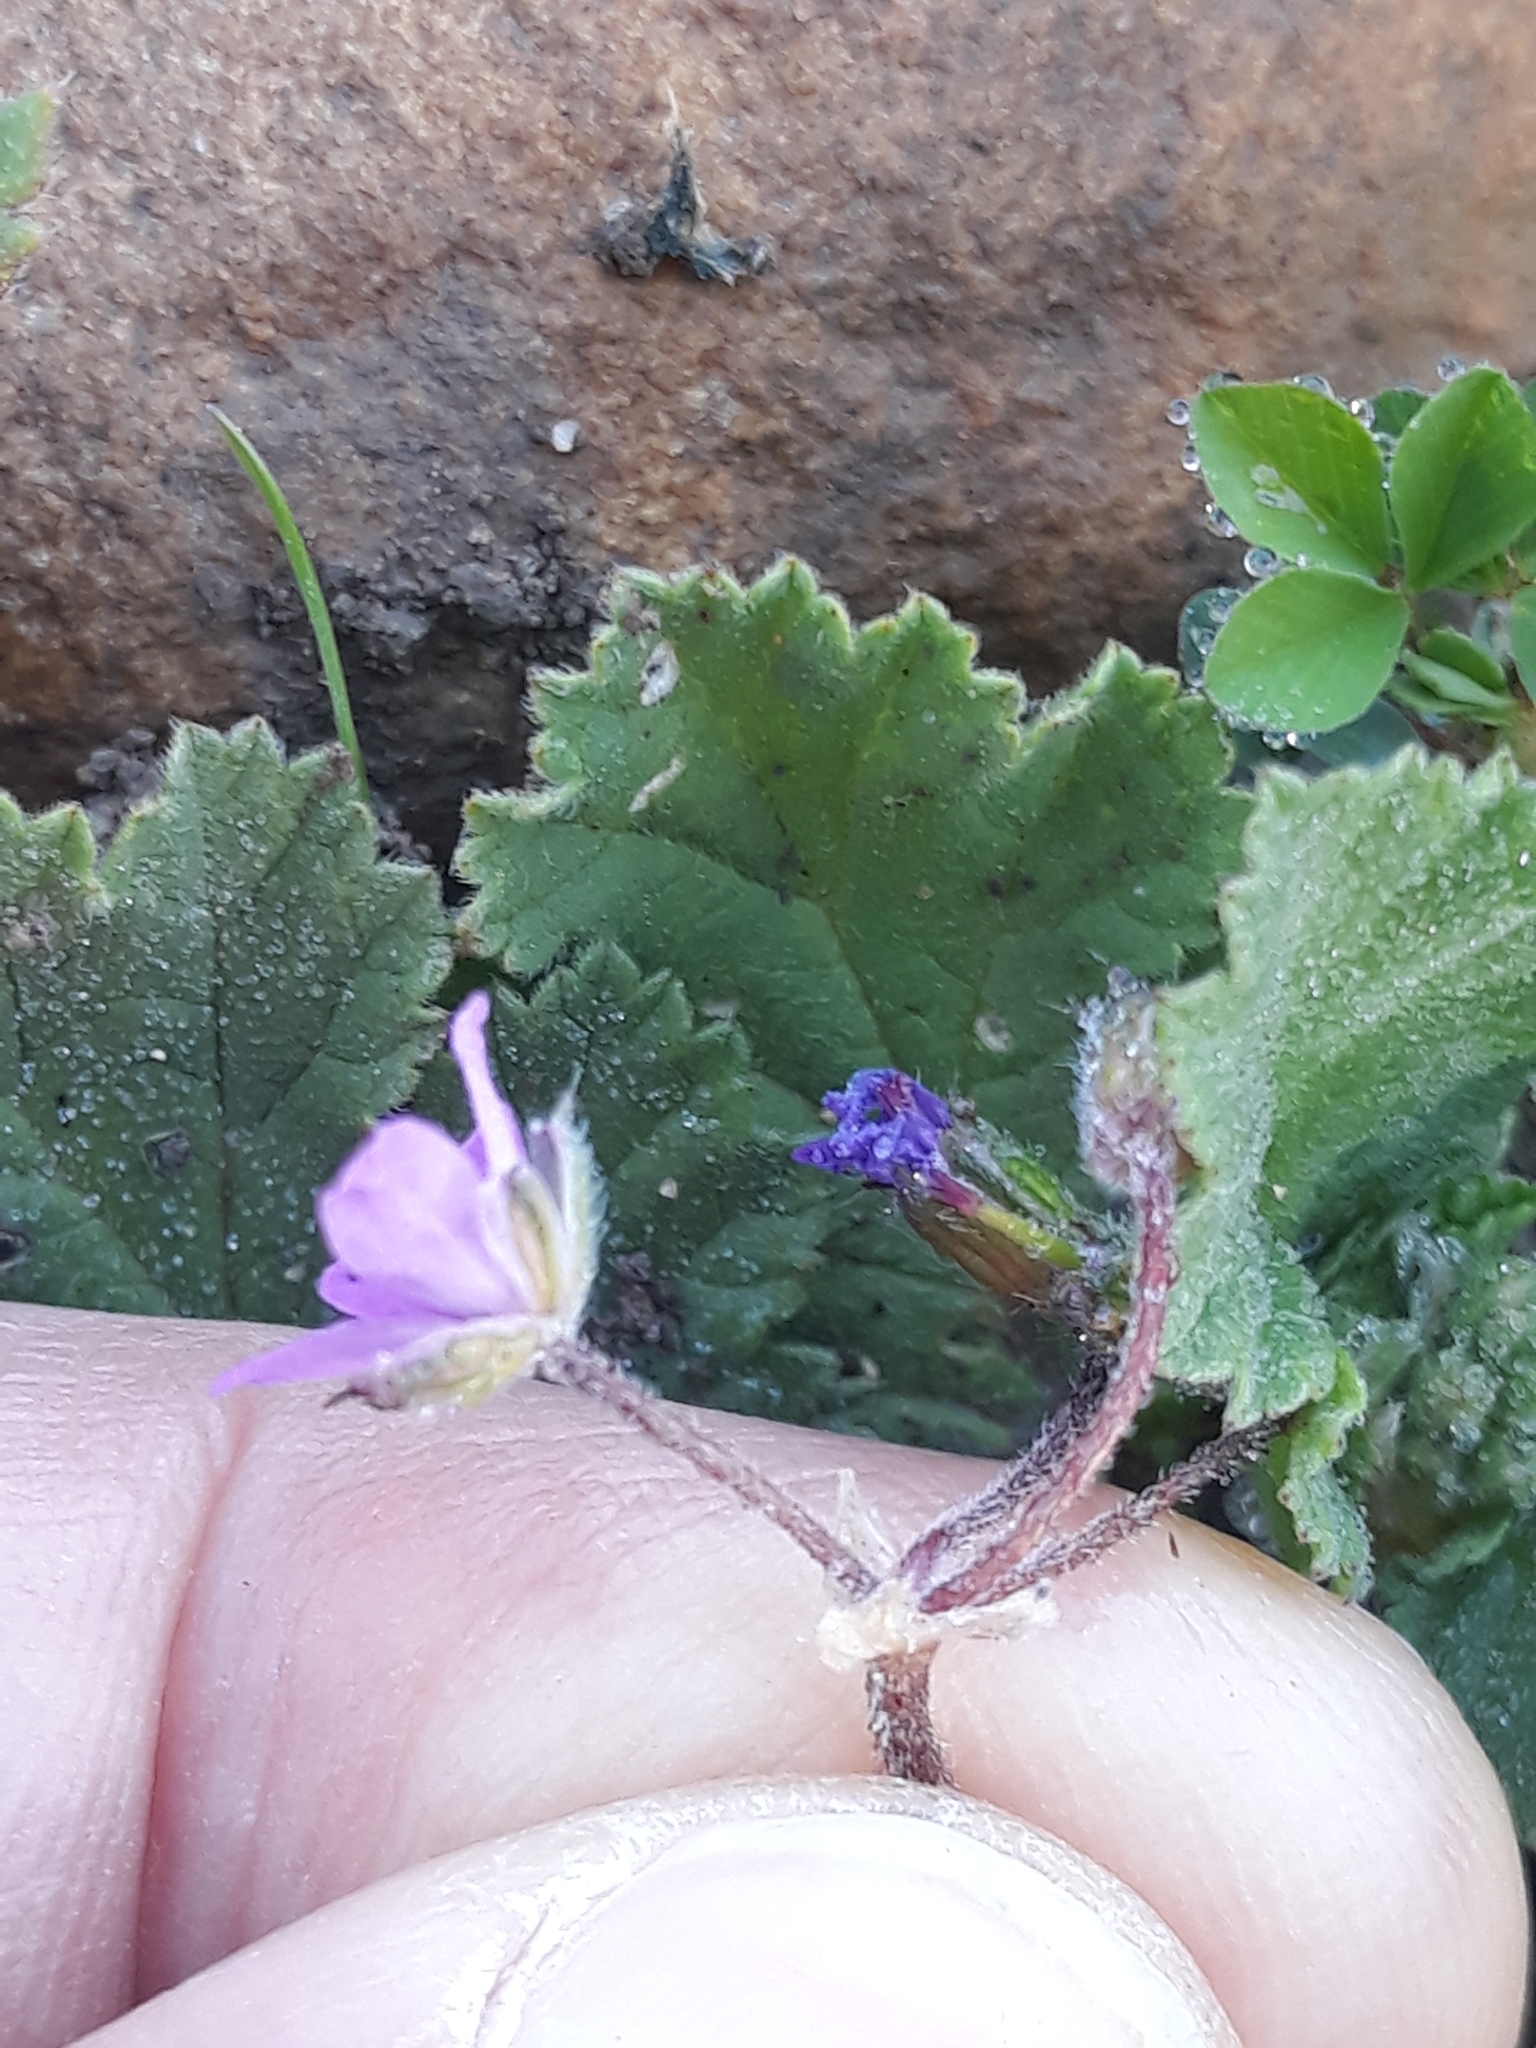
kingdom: Plantae
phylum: Tracheophyta
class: Magnoliopsida
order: Geraniales
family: Geraniaceae
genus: Erodium
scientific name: Erodium malacoides
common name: Soft stork's-bill
